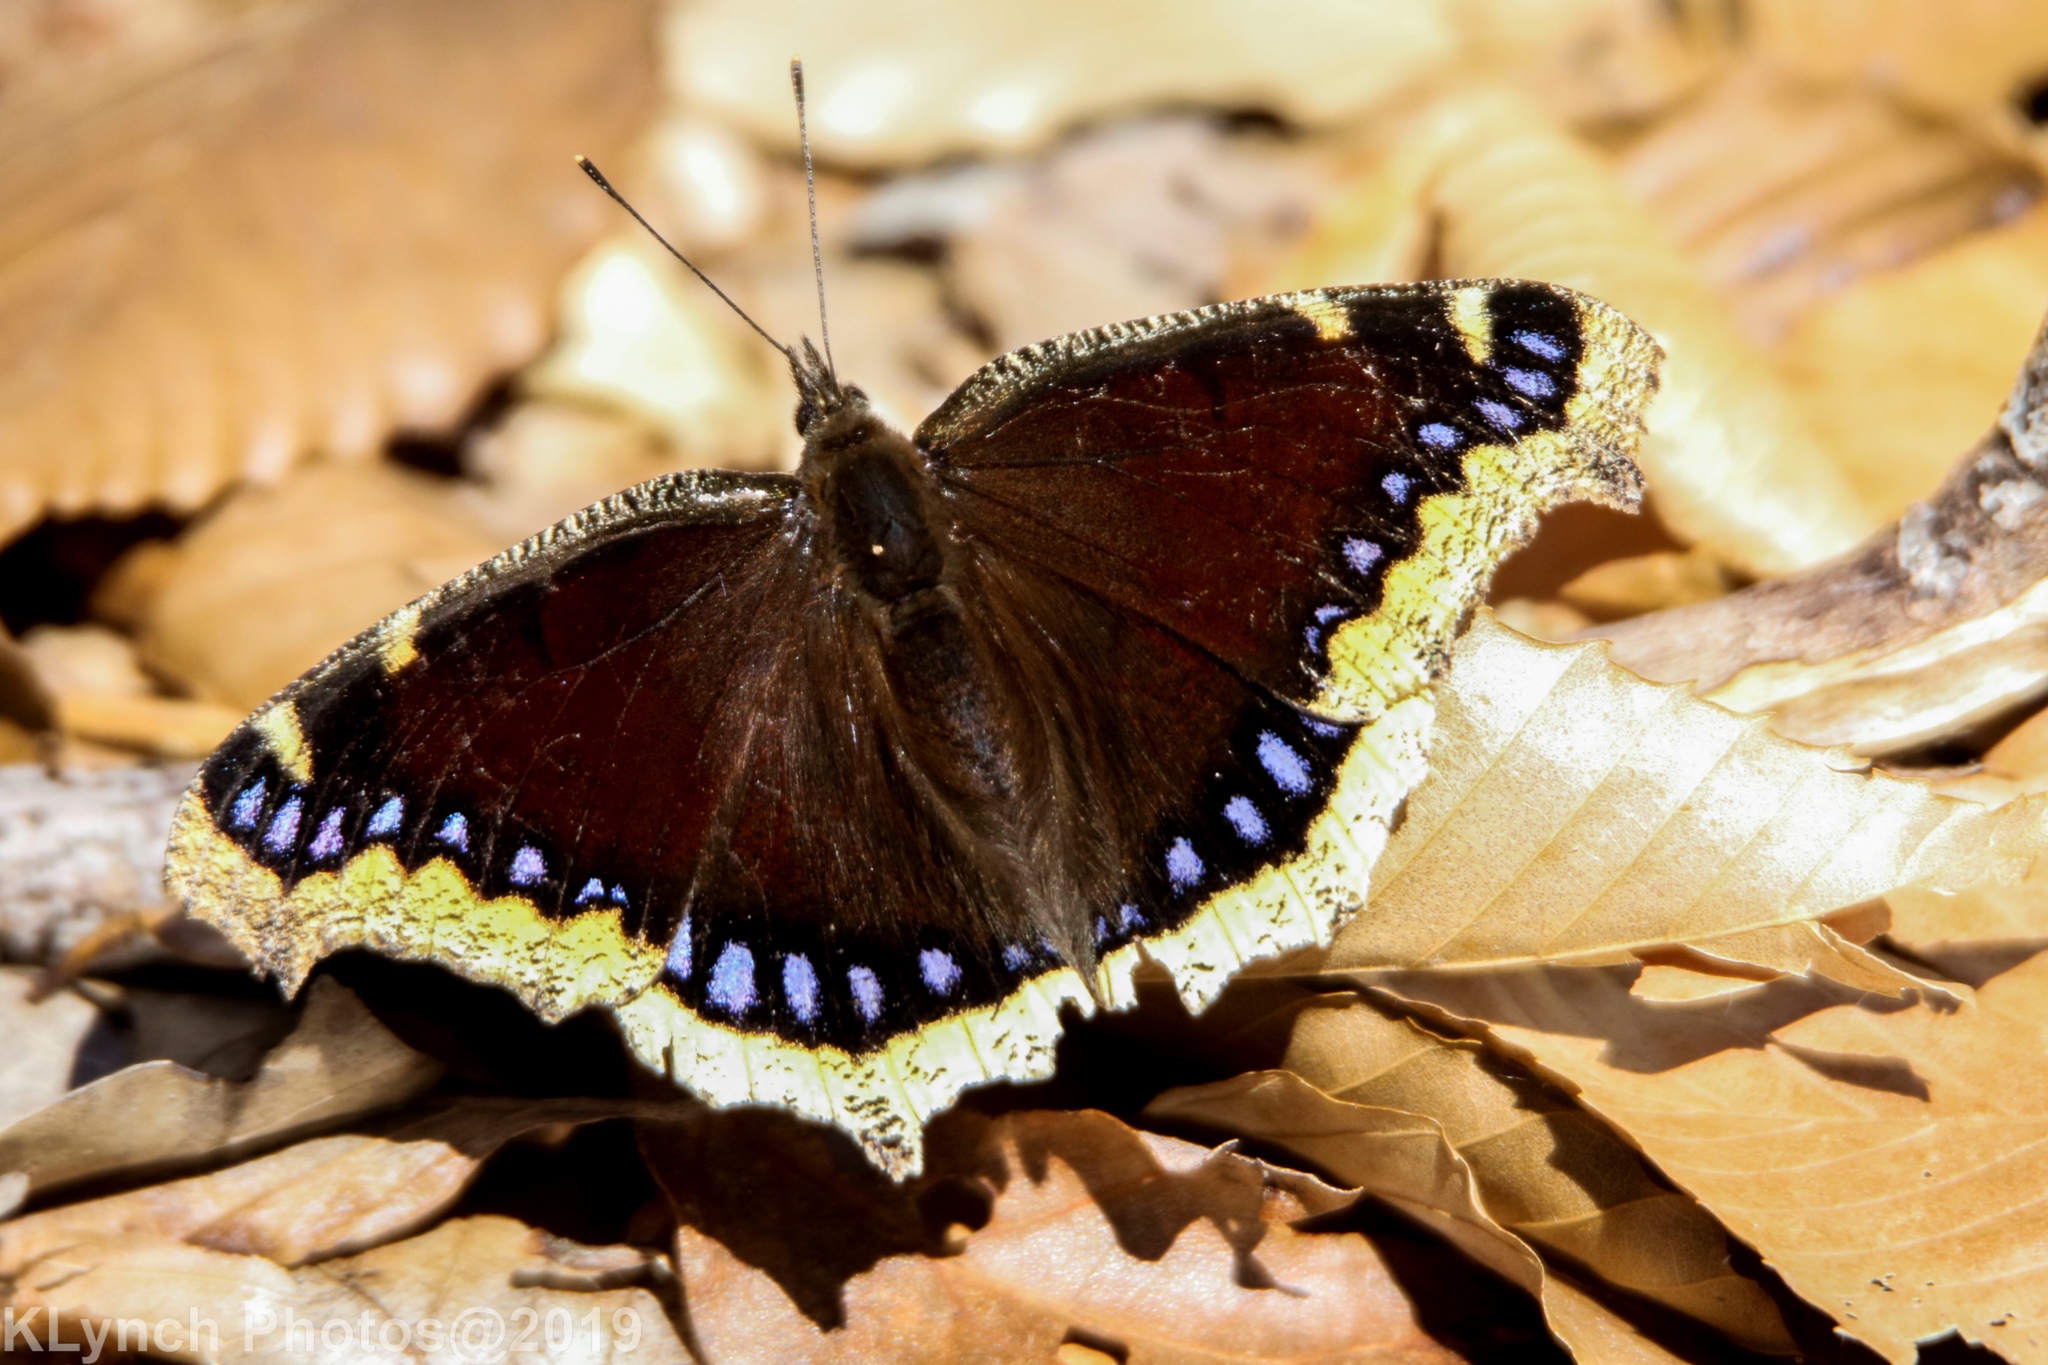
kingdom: Animalia
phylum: Arthropoda
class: Insecta
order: Lepidoptera
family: Nymphalidae
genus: Nymphalis
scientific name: Nymphalis antiopa
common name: Camberwell beauty
